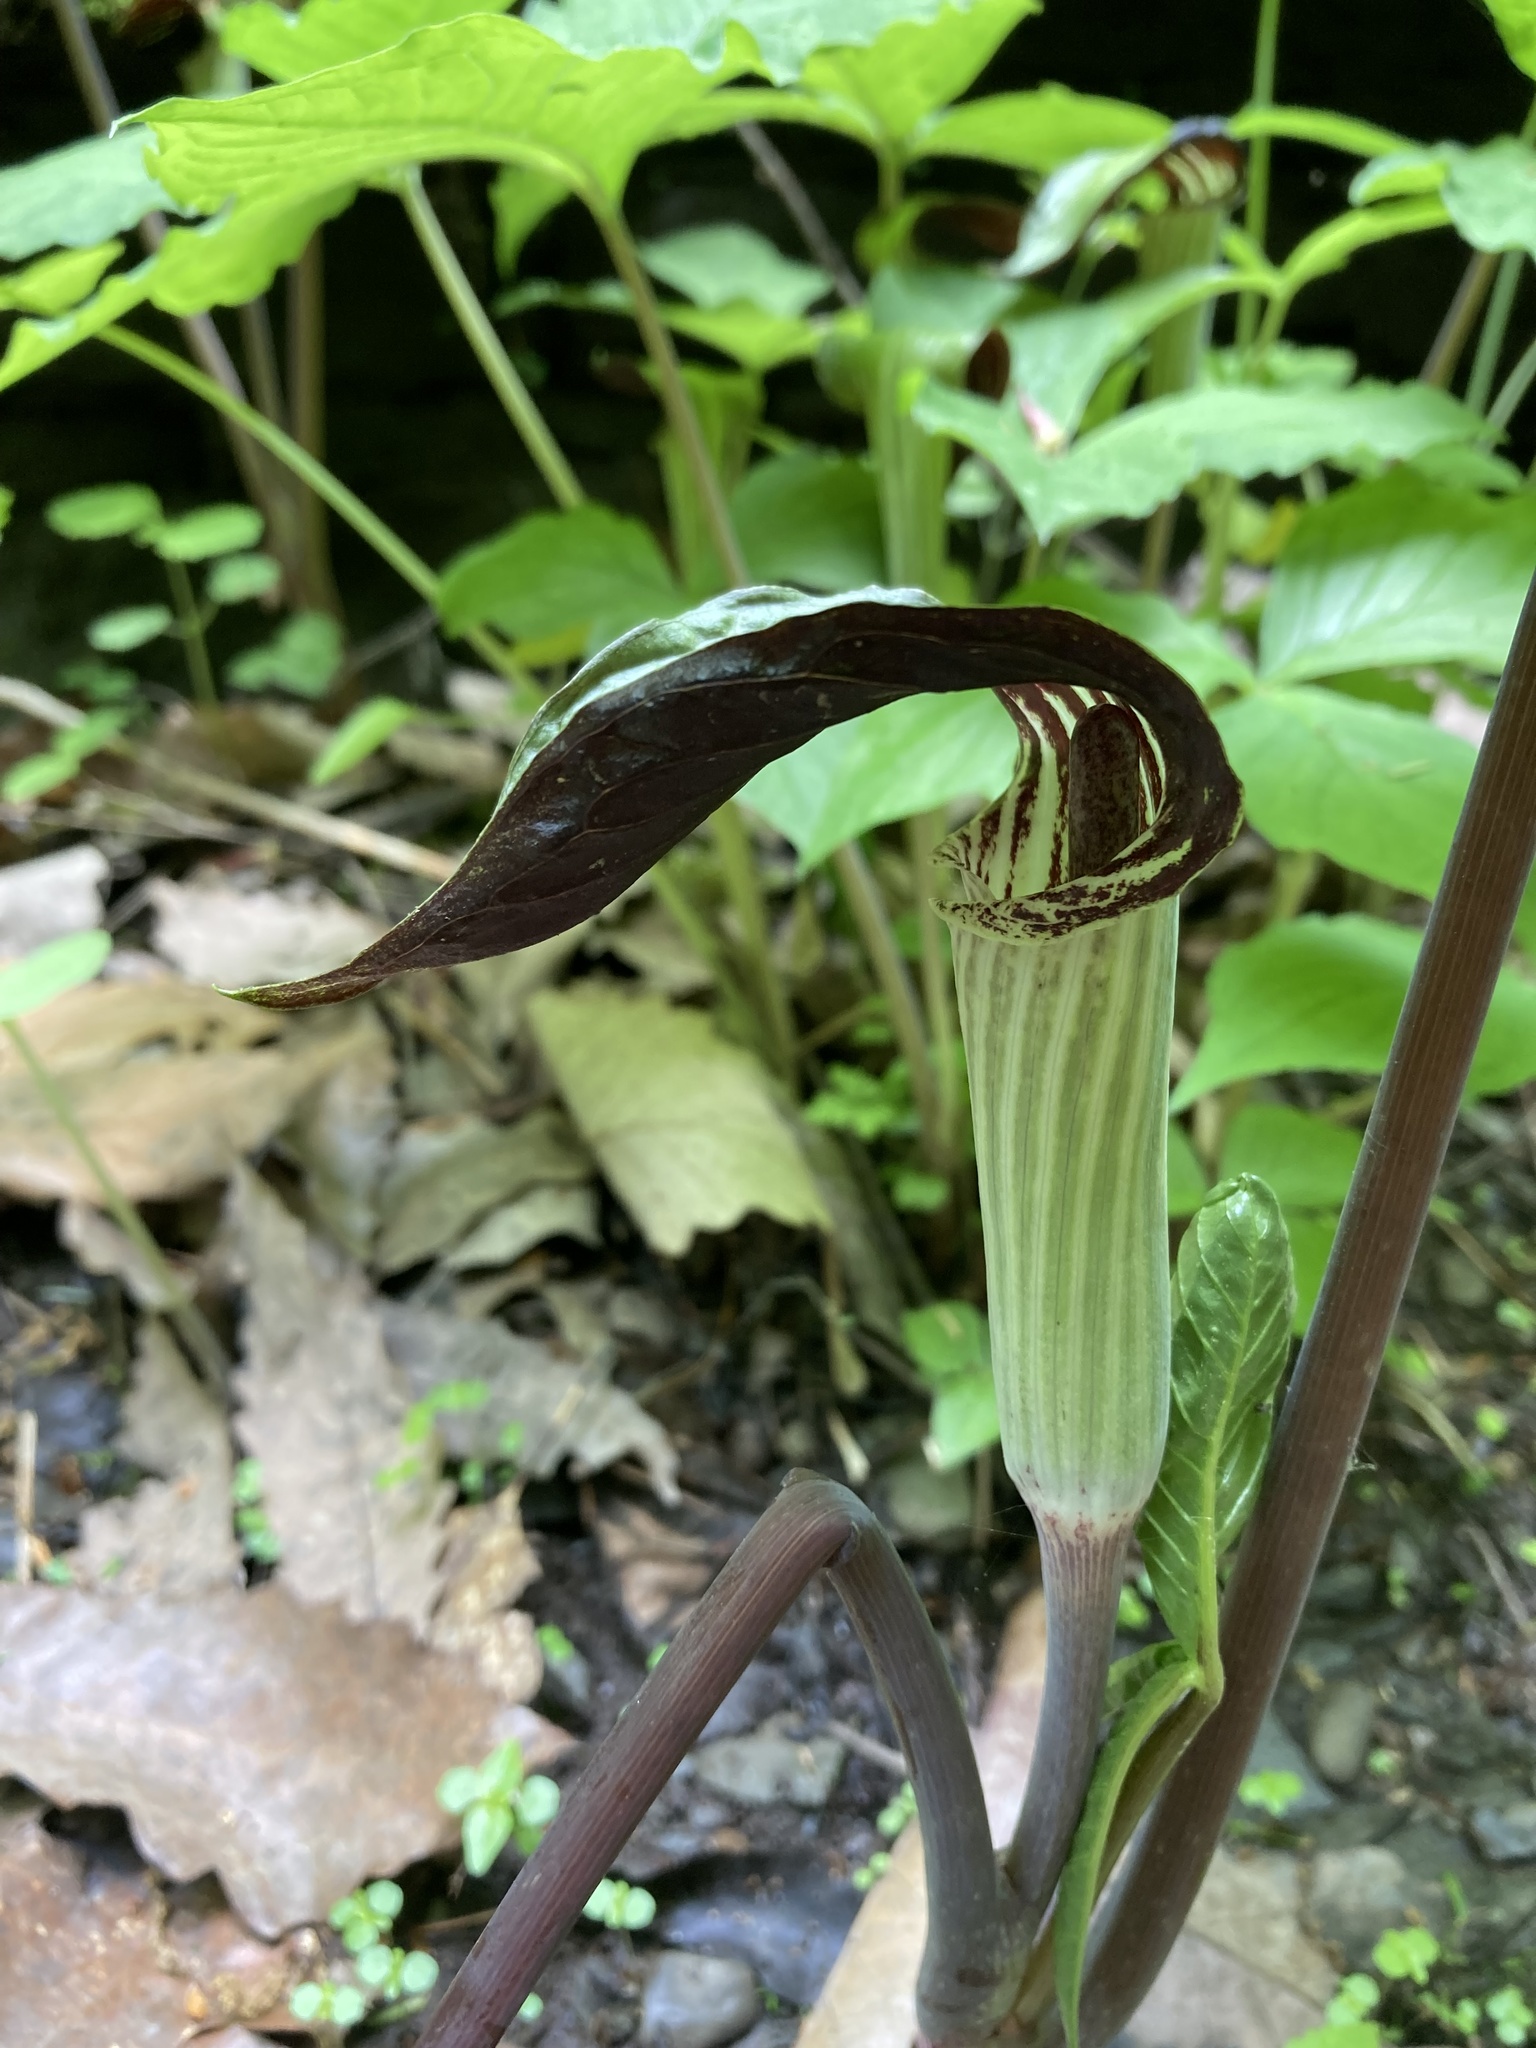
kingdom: Plantae
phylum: Tracheophyta
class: Liliopsida
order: Alismatales
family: Araceae
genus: Arisaema
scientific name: Arisaema triphyllum
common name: Jack-in-the-pulpit
